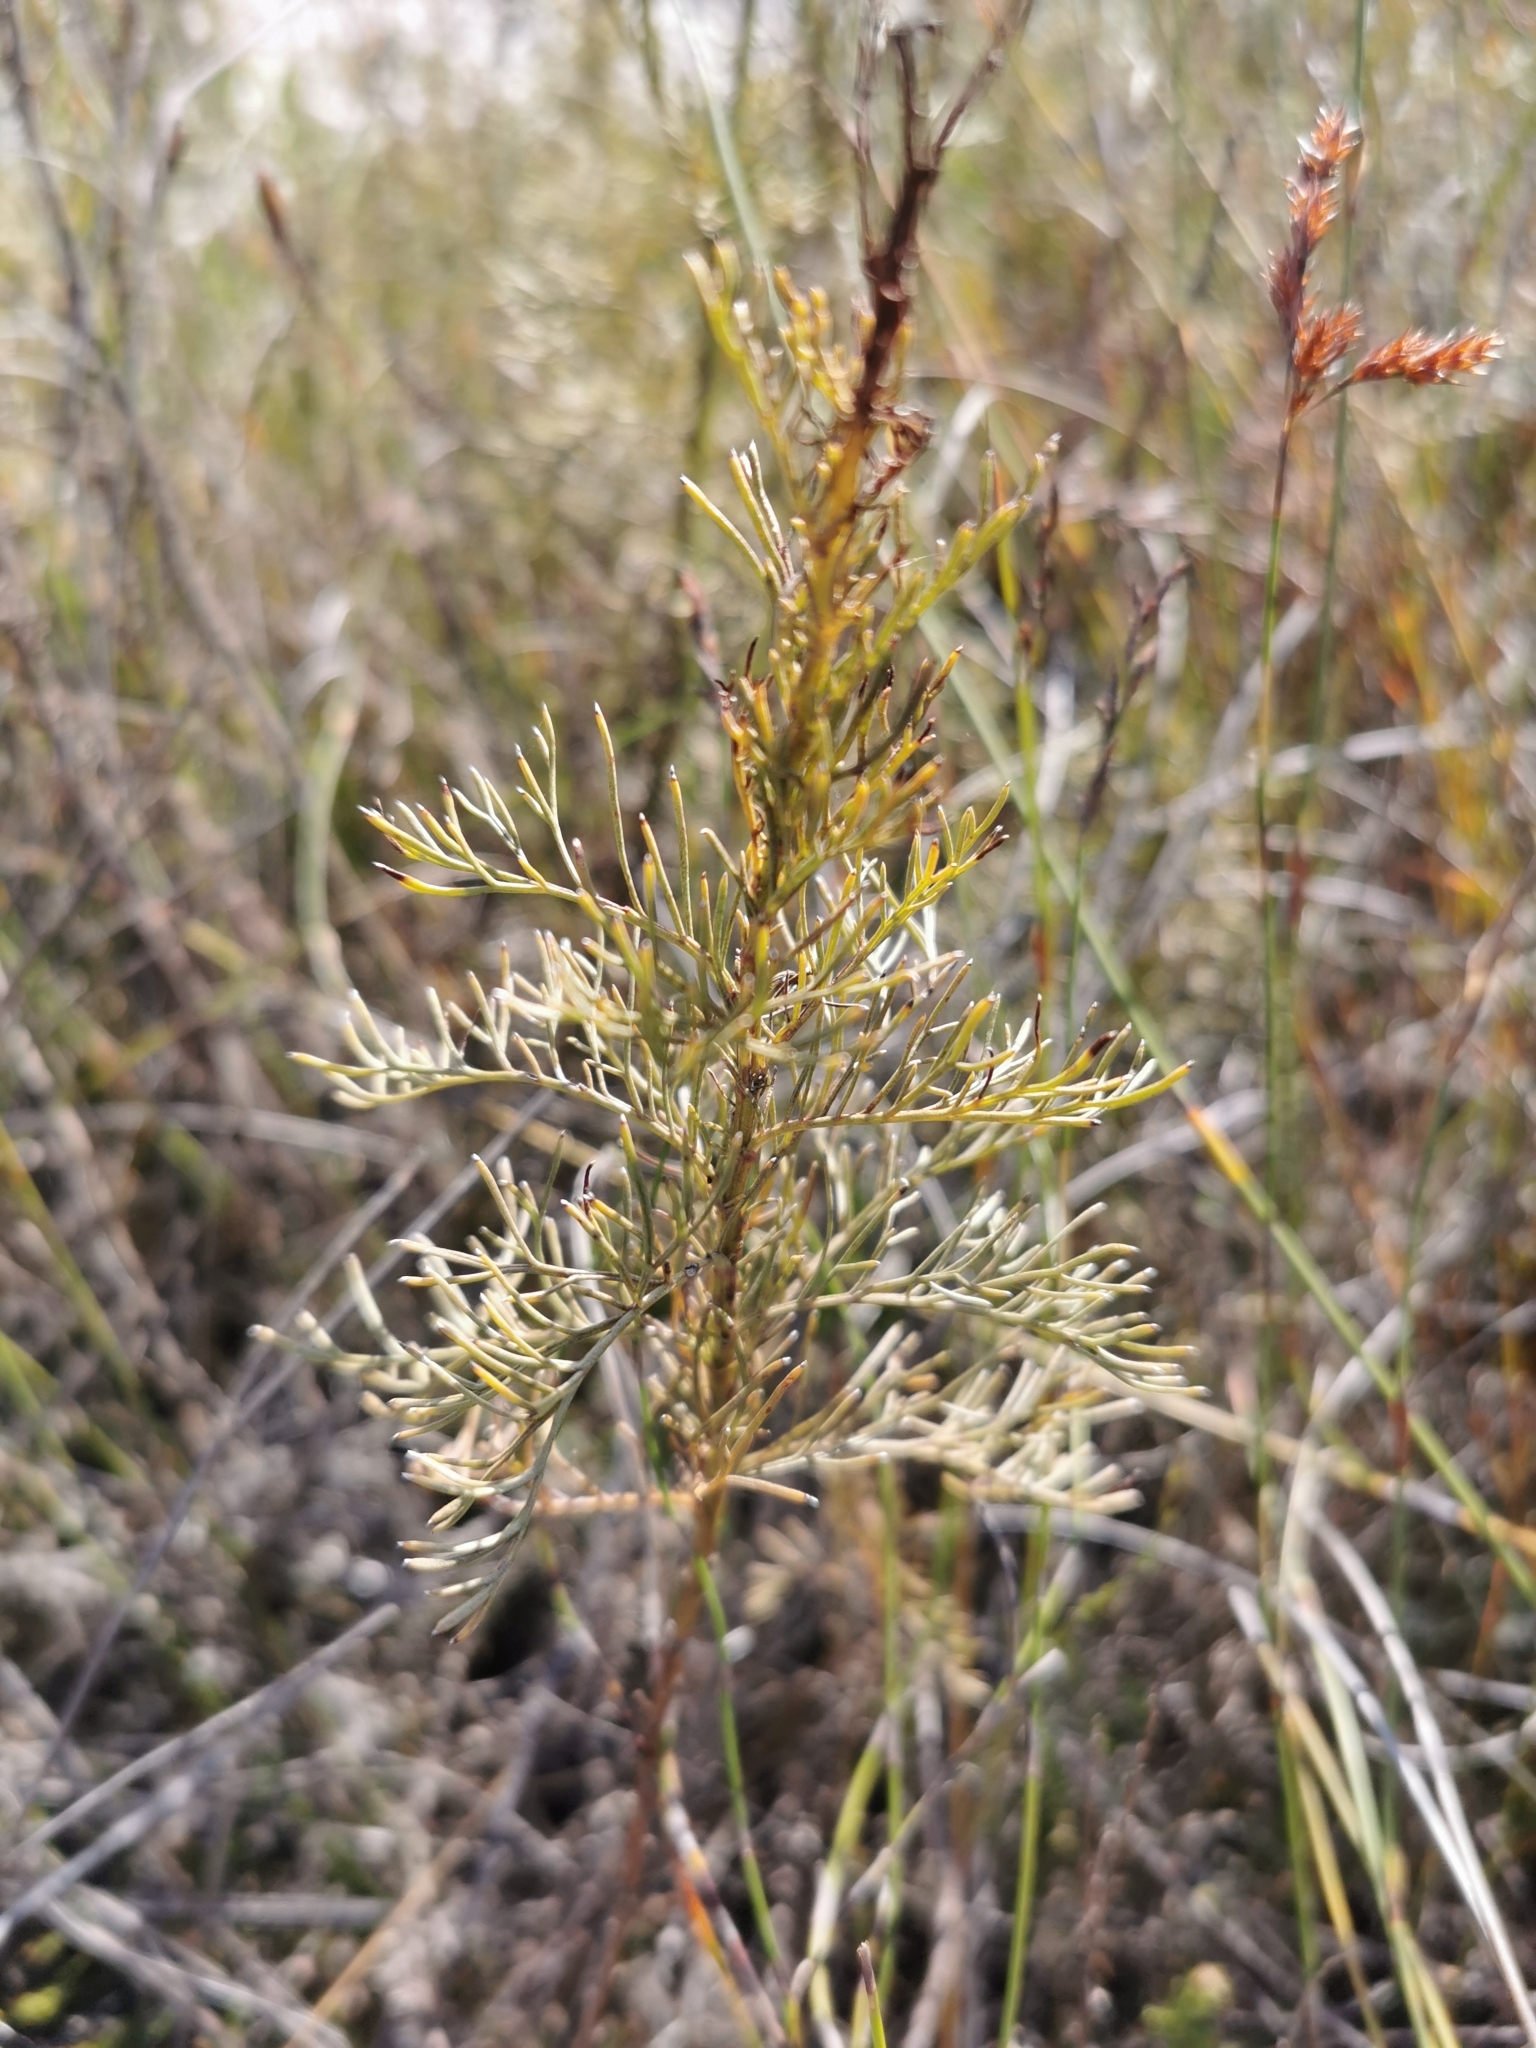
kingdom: Plantae
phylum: Tracheophyta
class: Magnoliopsida
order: Asterales
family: Asteraceae
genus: Senecio
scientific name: Senecio foeniculoides
